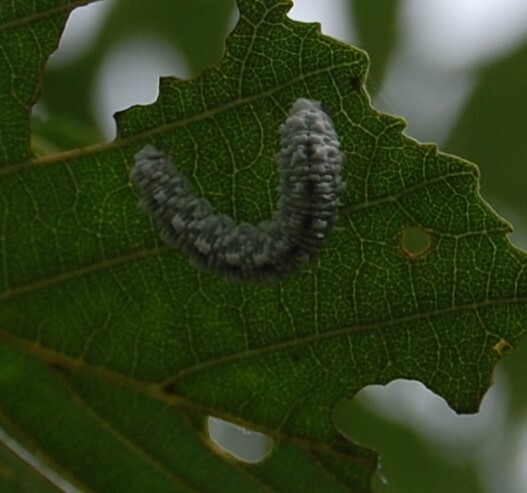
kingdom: Animalia
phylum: Arthropoda
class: Insecta
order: Hymenoptera
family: Tenthredinidae
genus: Eriocampa
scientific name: Eriocampa ovata
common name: Alder wooly sawfly
